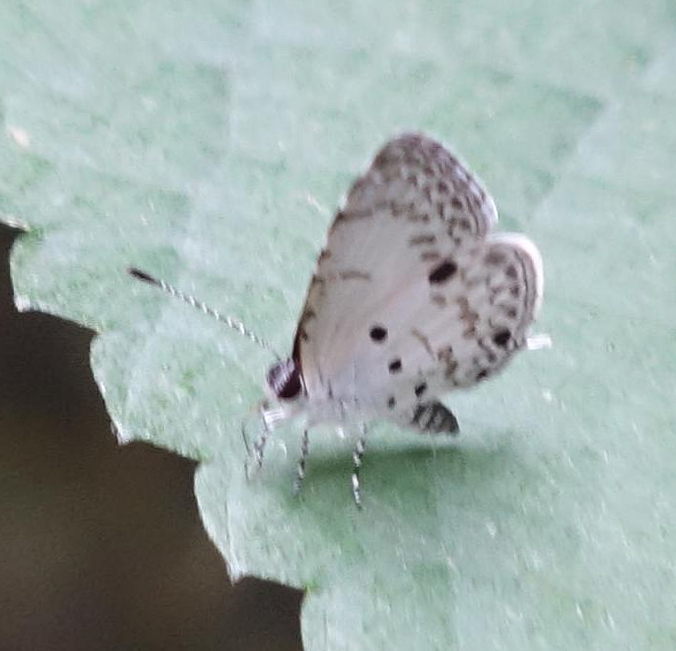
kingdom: Animalia
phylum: Arthropoda
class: Insecta
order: Lepidoptera
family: Lycaenidae
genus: Megisba
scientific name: Megisba malaya
